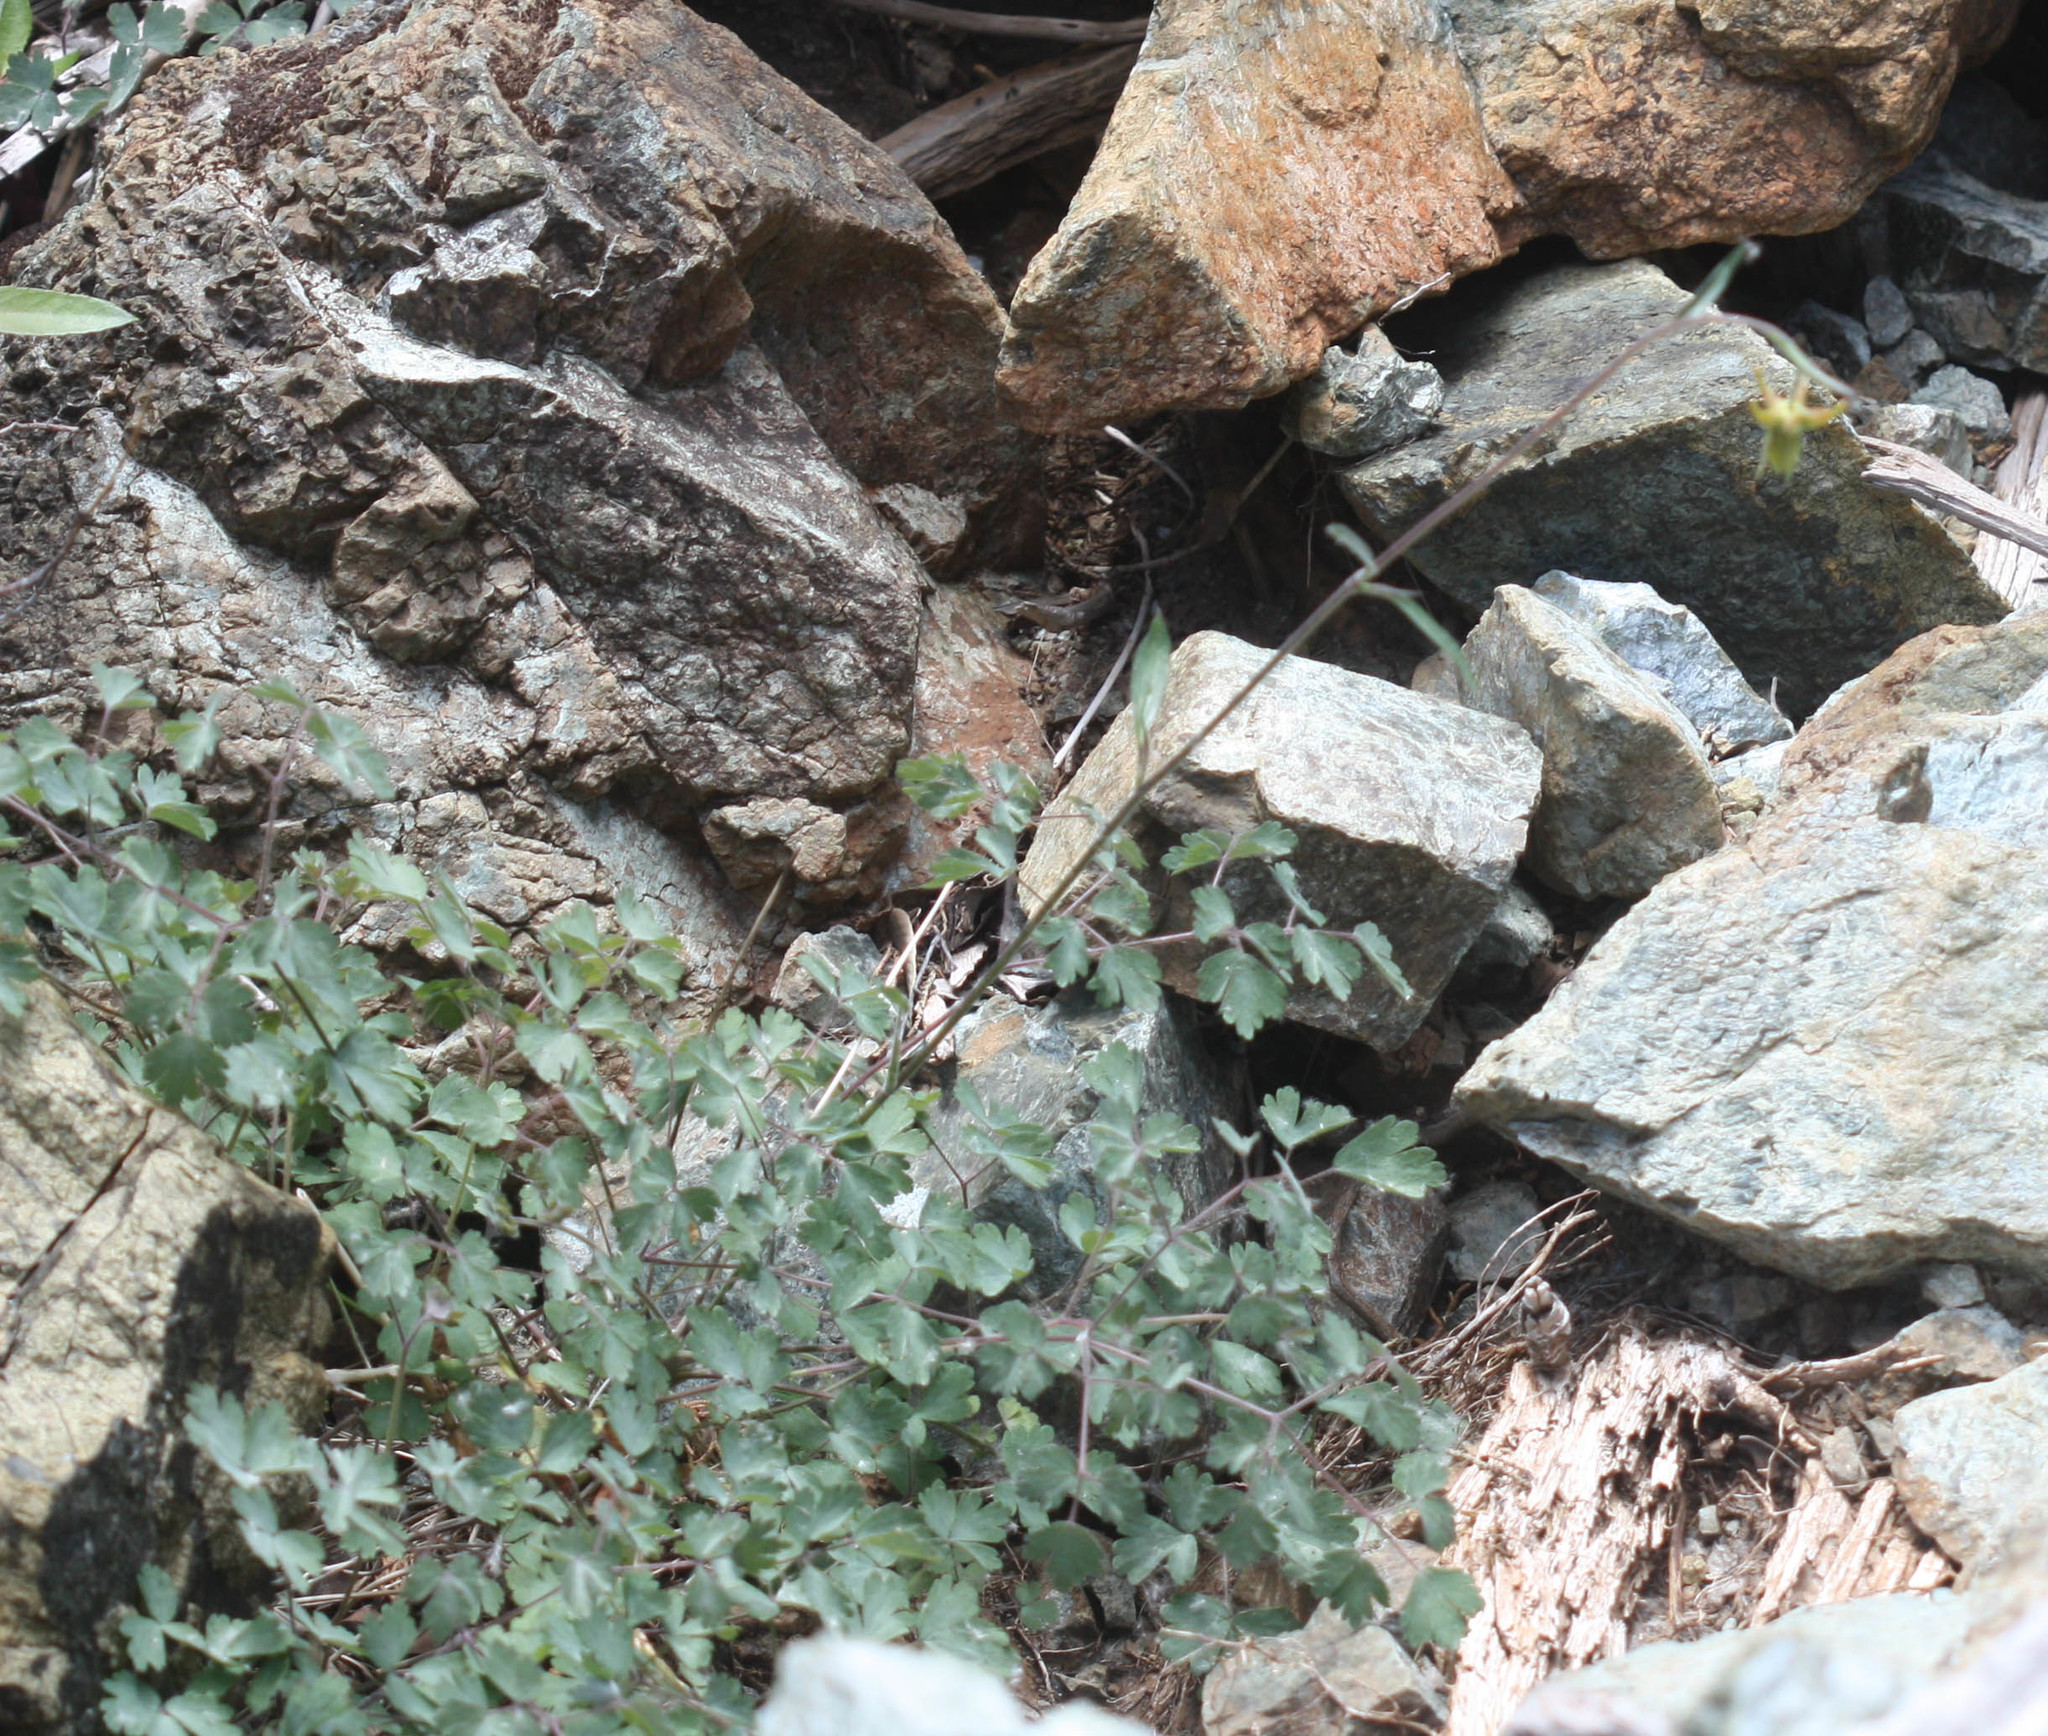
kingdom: Plantae
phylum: Tracheophyta
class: Magnoliopsida
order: Ranunculales
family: Ranunculaceae
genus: Aquilegia
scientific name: Aquilegia eximia
